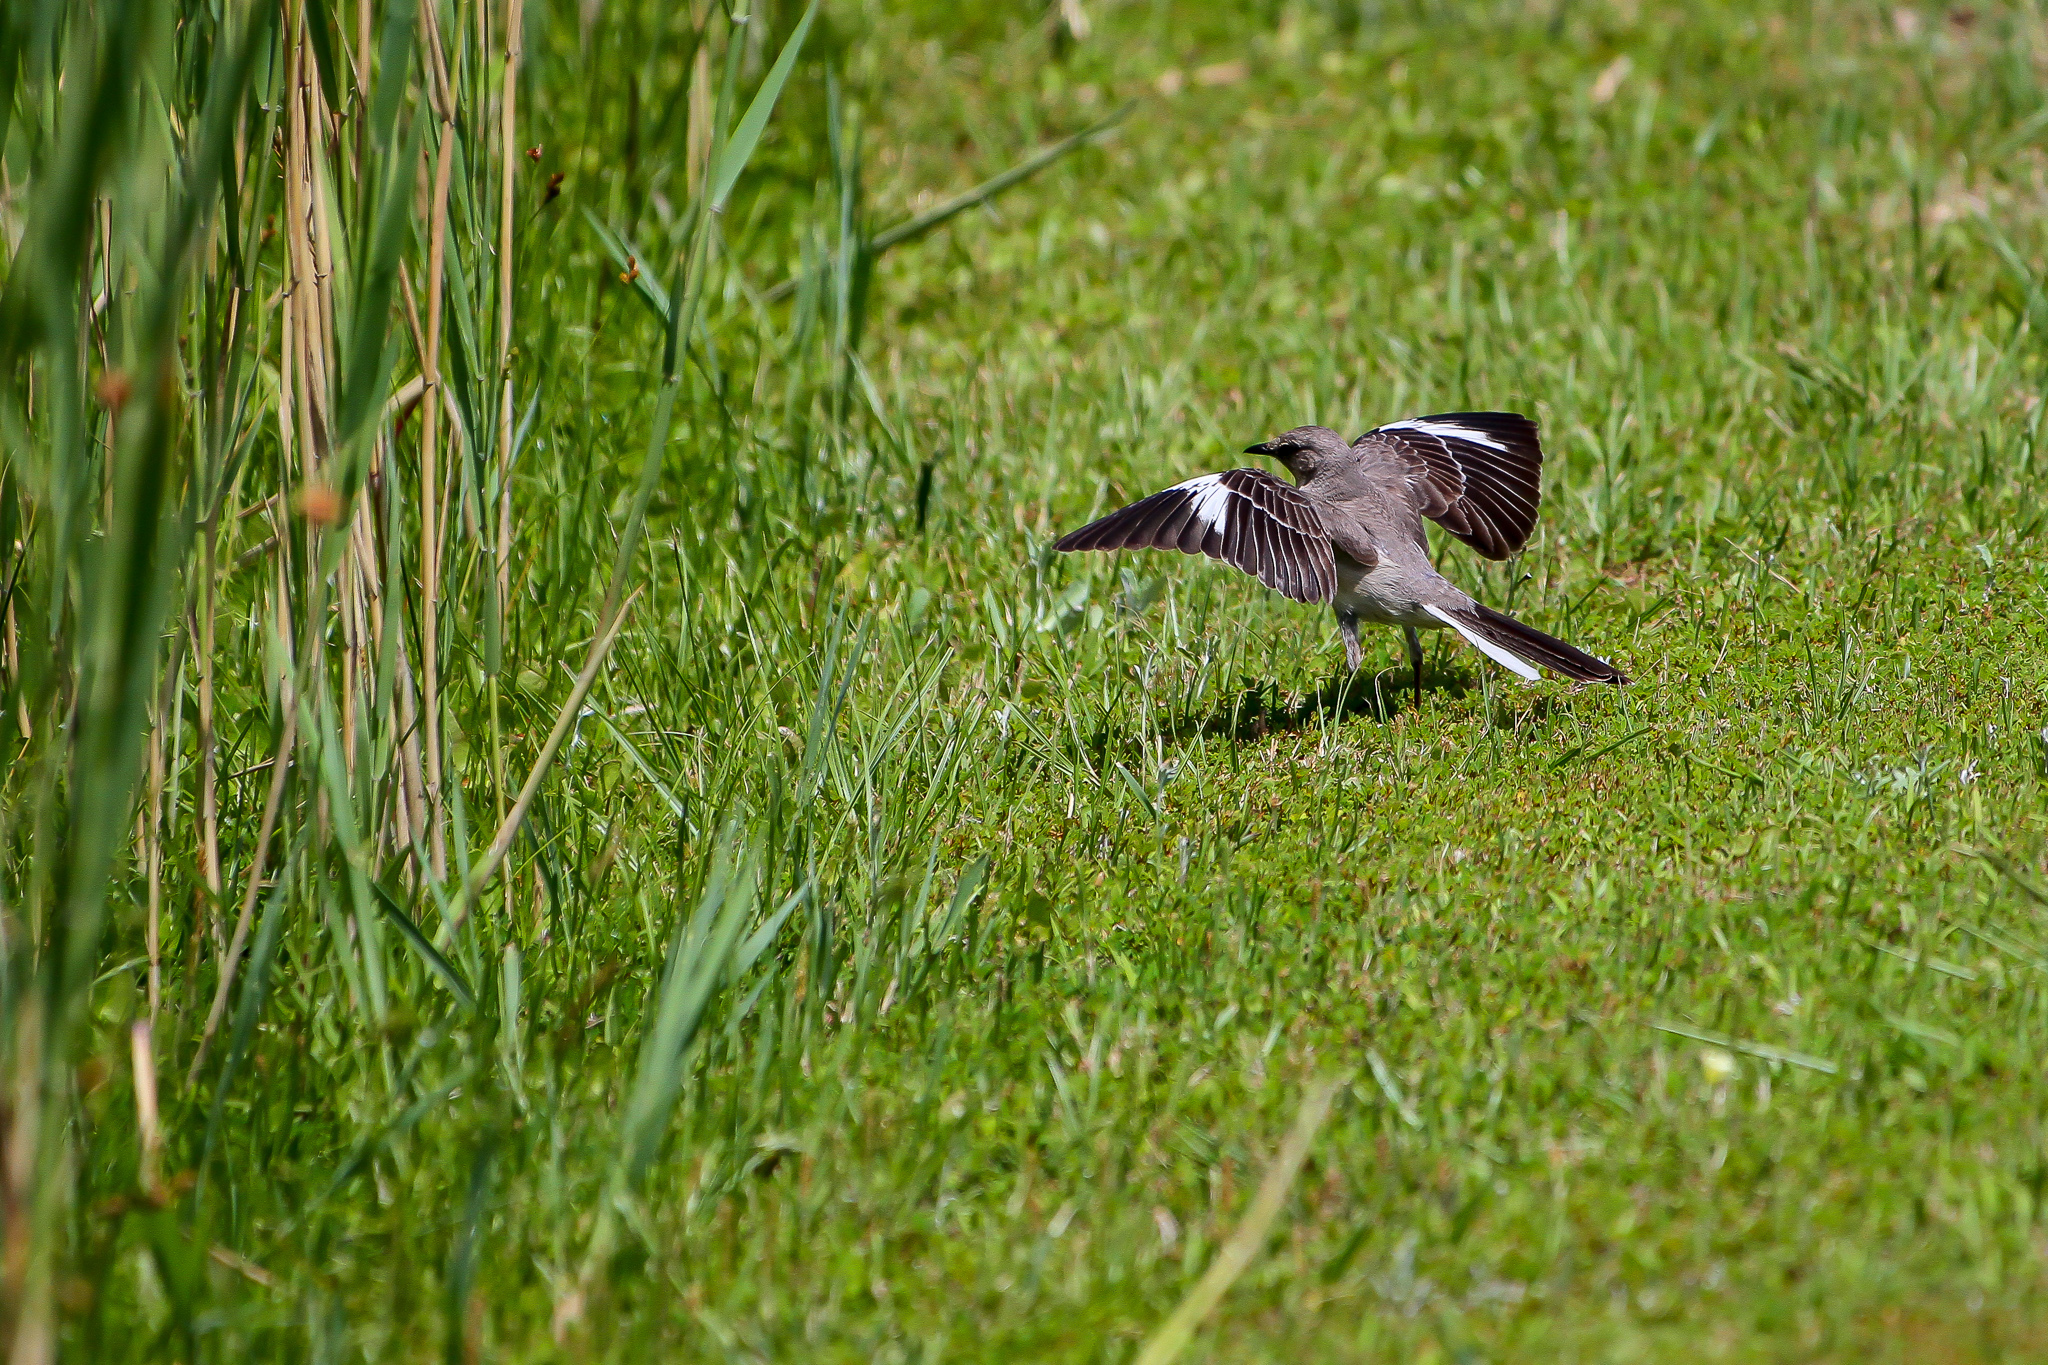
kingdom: Animalia
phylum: Chordata
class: Aves
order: Passeriformes
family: Mimidae
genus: Mimus
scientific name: Mimus polyglottos
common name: Northern mockingbird
